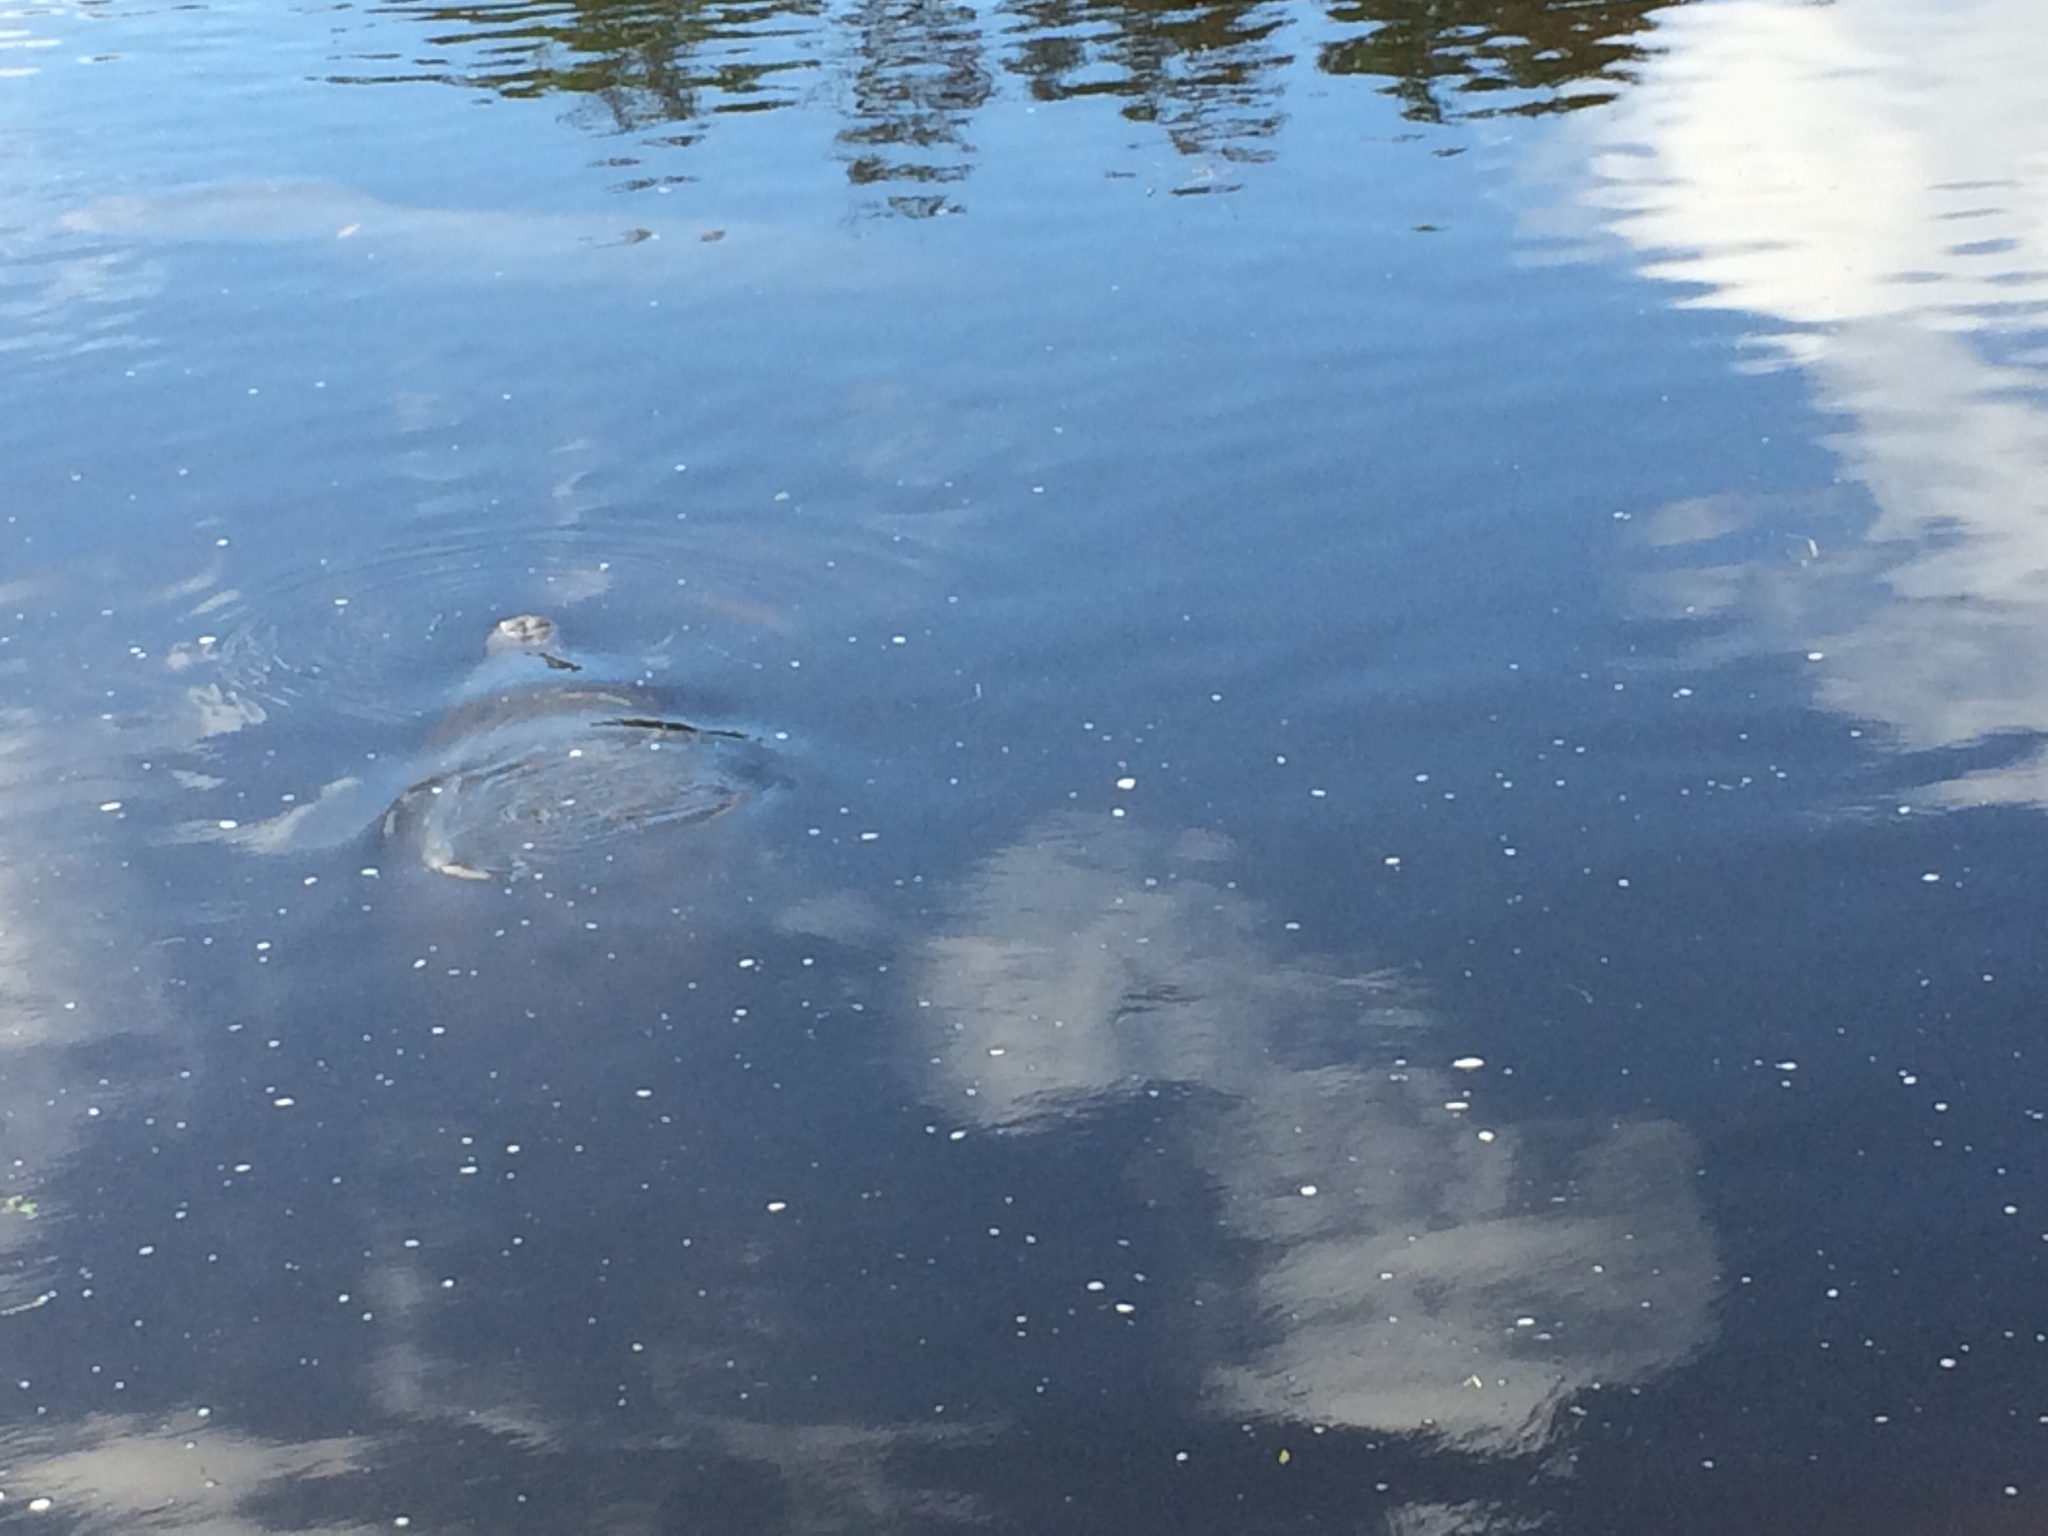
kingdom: Animalia
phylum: Chordata
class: Mammalia
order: Sirenia
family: Trichechidae
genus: Trichechus
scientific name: Trichechus manatus
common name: West indian manatee
